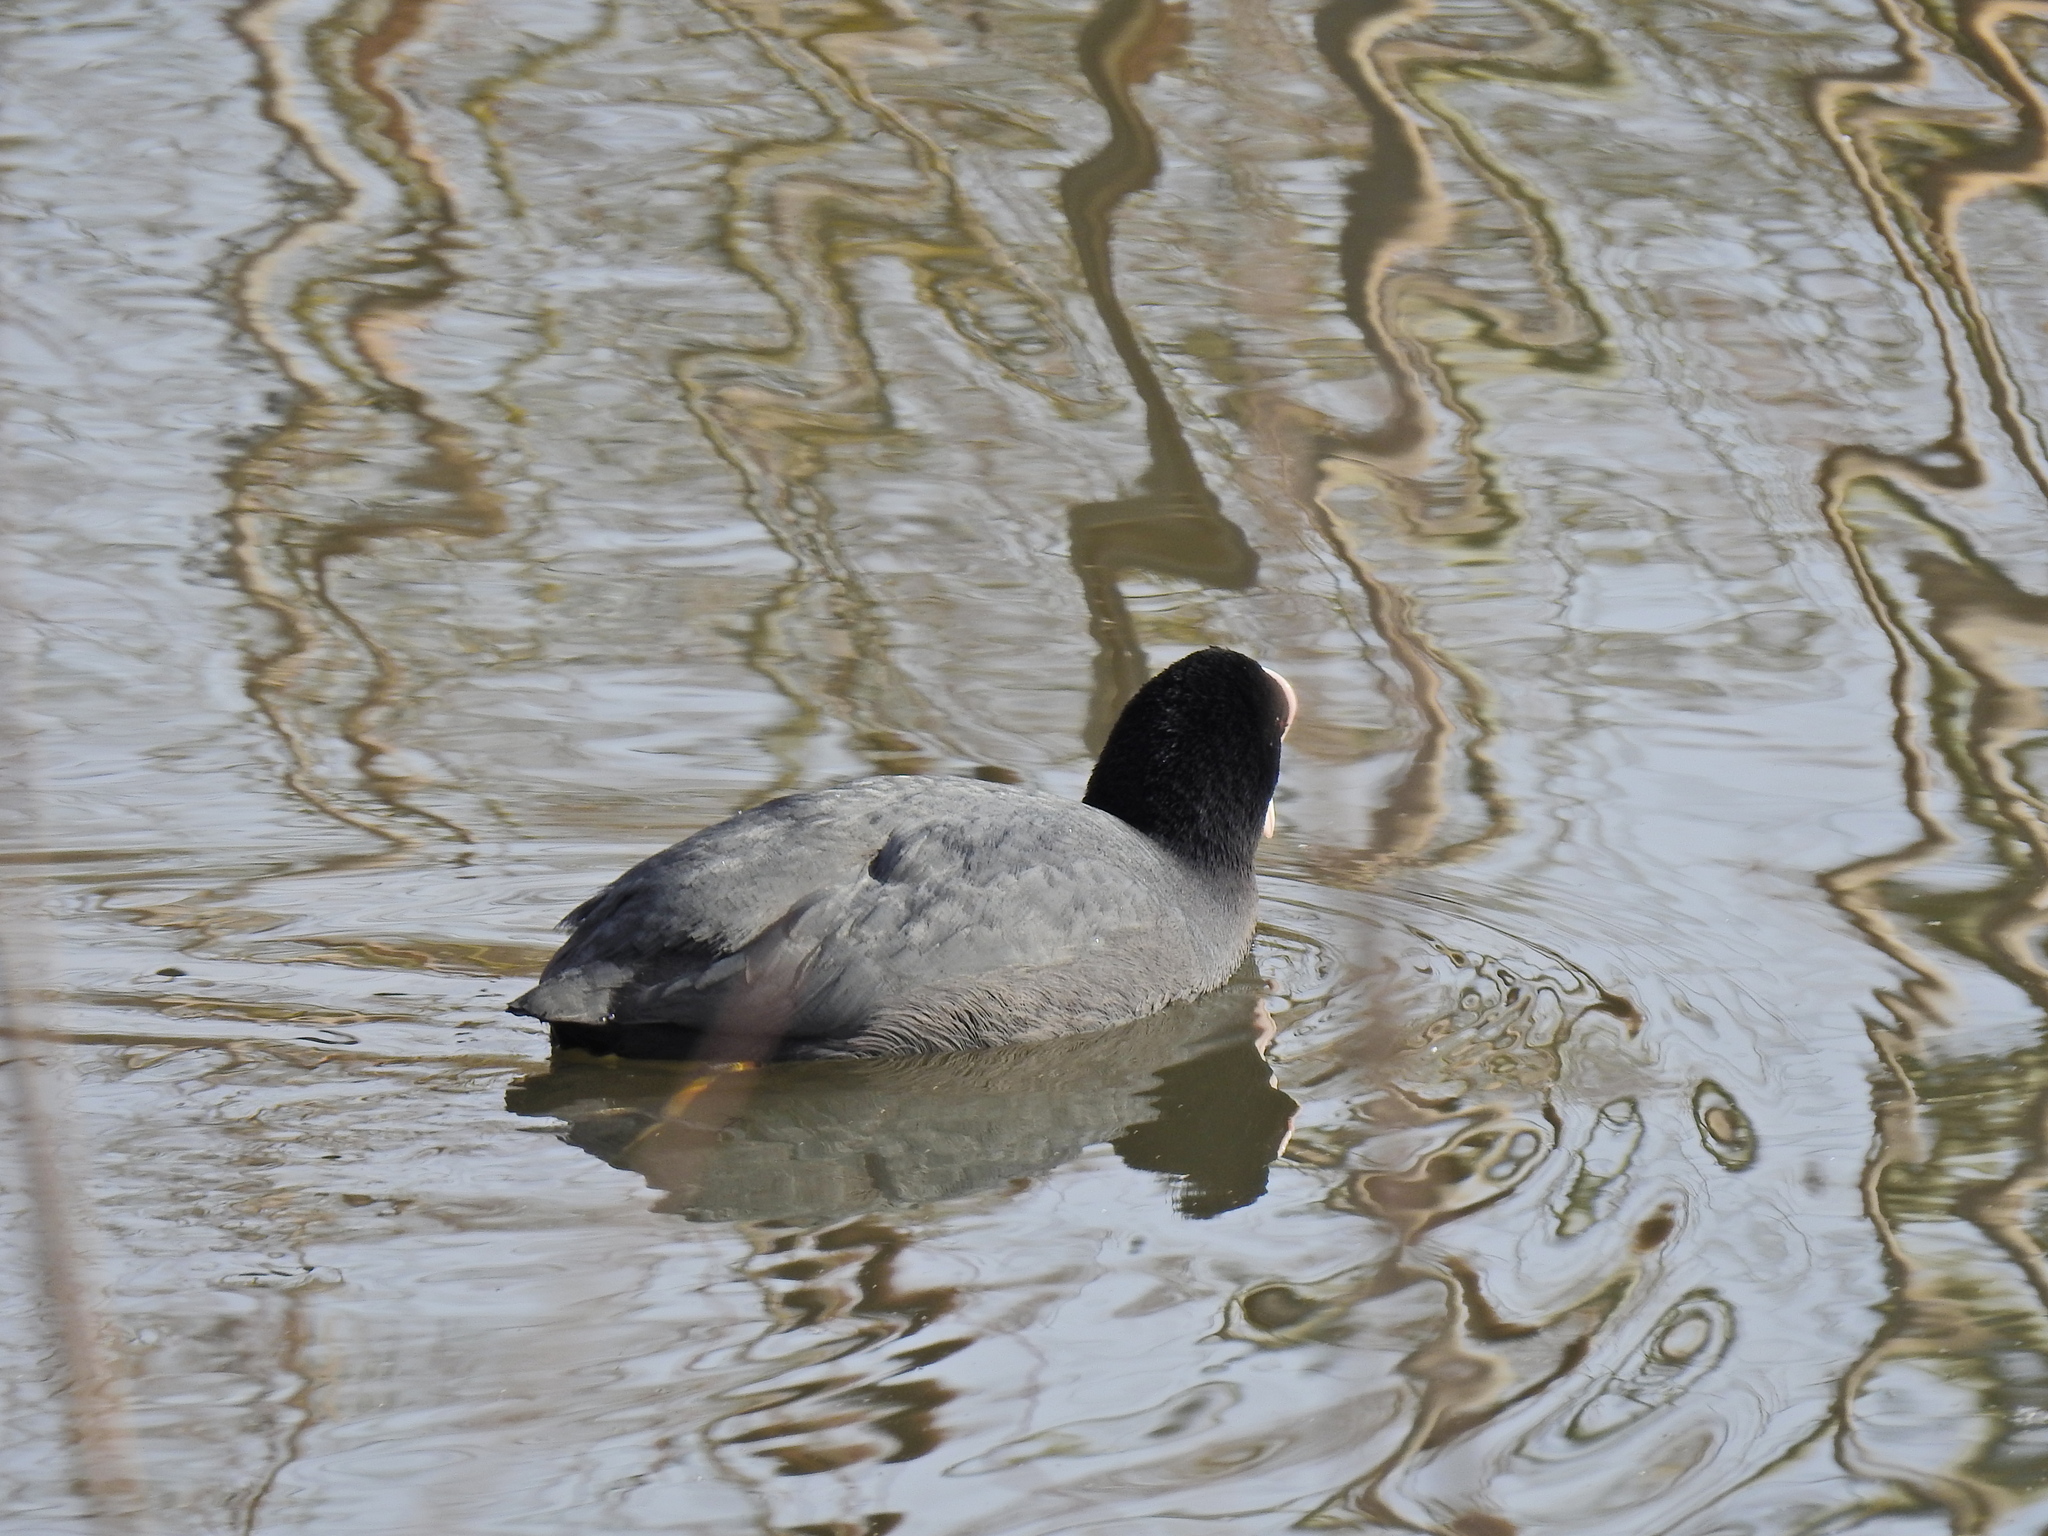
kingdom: Animalia
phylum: Chordata
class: Aves
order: Gruiformes
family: Rallidae
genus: Fulica
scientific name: Fulica atra
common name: Eurasian coot
